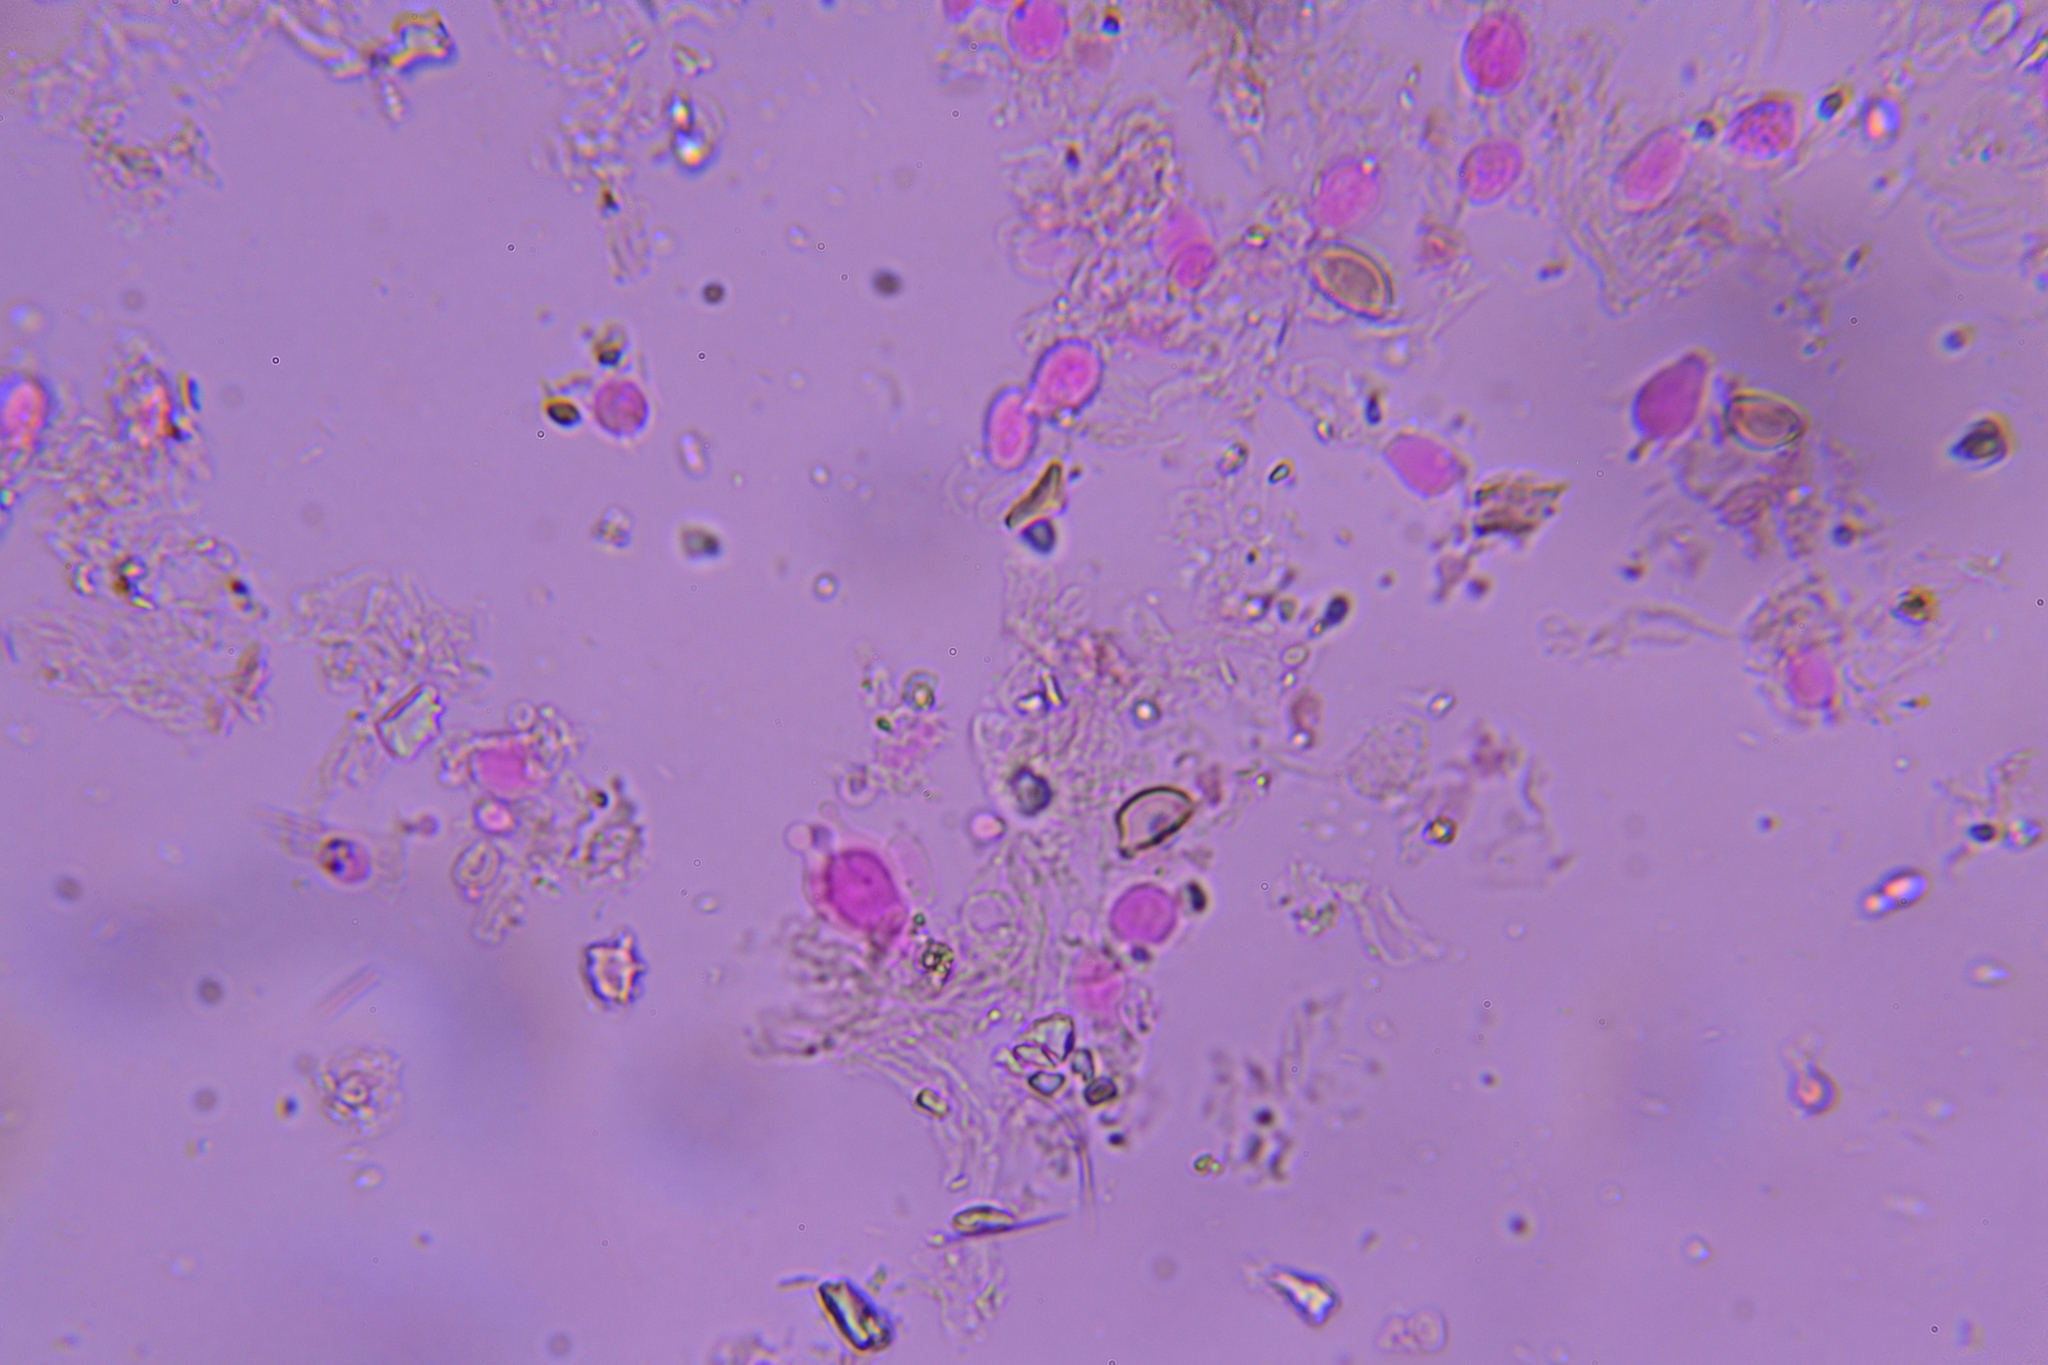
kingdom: Fungi
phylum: Basidiomycota
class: Agaricomycetes
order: Agaricales
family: Bolbitiaceae
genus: Conocybe
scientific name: Conocybe velutipes
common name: Fleecyfoot conecap
